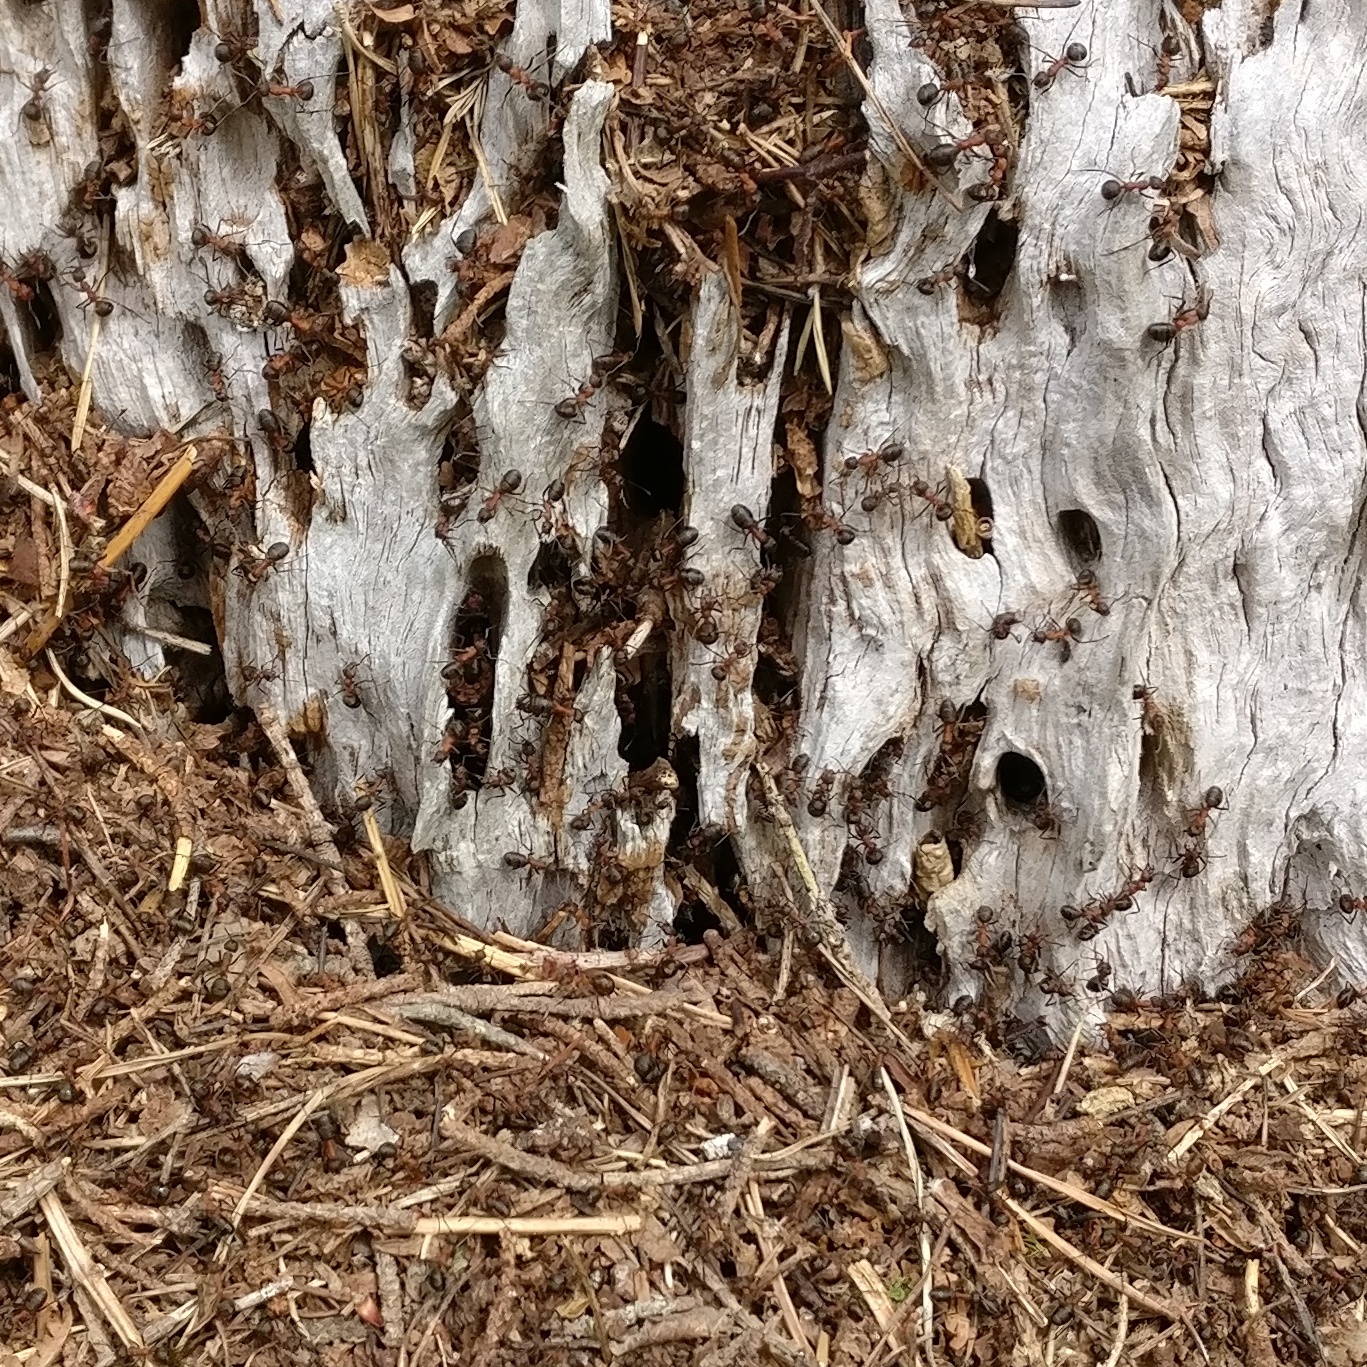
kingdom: Animalia
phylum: Arthropoda
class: Insecta
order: Hymenoptera
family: Formicidae
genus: Formica
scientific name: Formica
